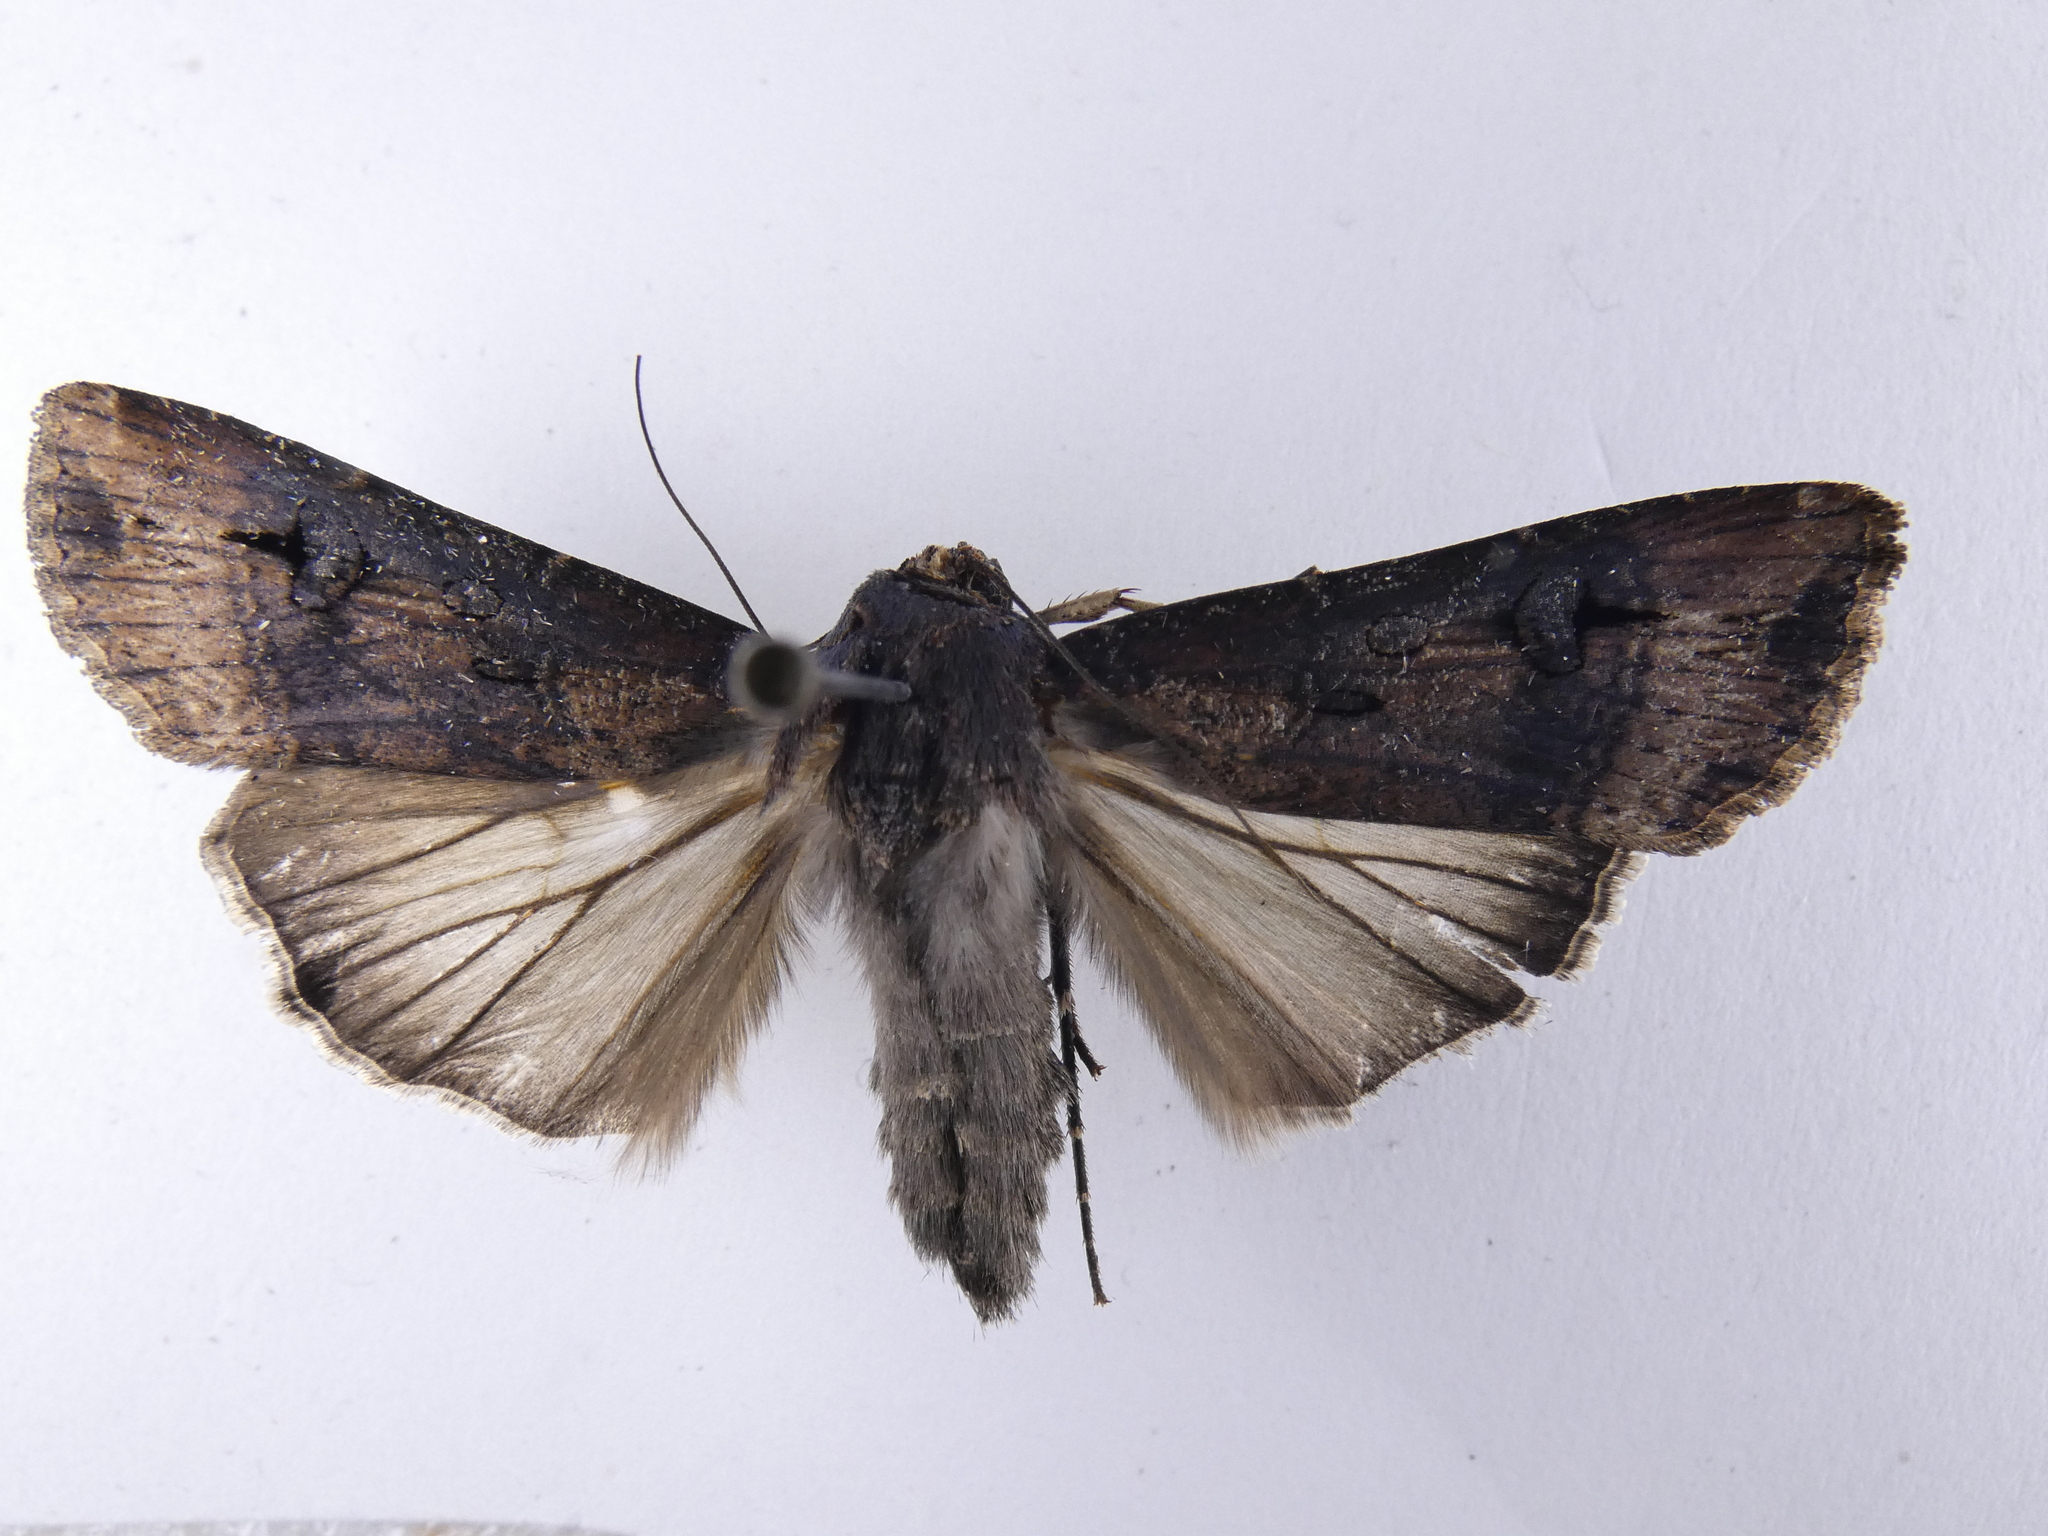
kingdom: Animalia
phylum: Arthropoda
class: Insecta
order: Lepidoptera
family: Noctuidae
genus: Agrotis
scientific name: Agrotis ipsilon
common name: Dark sword-grass
